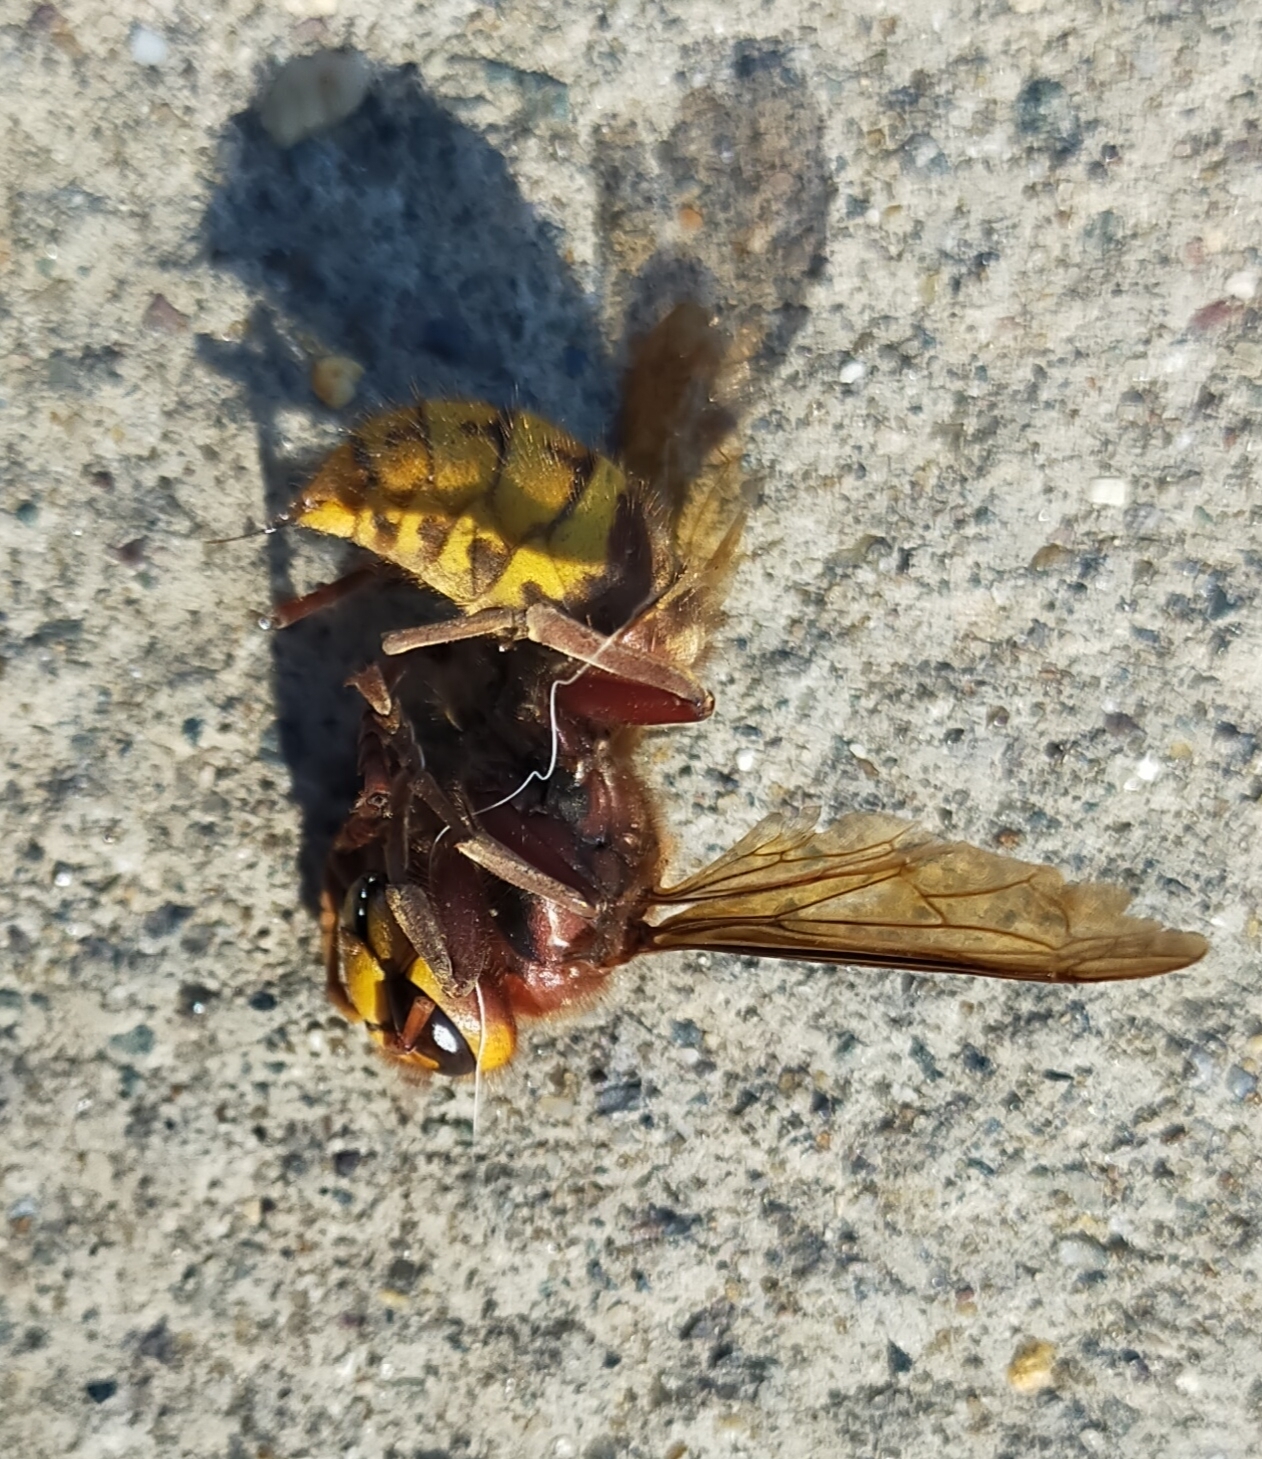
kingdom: Animalia
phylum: Arthropoda
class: Insecta
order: Hymenoptera
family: Vespidae
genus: Vespa
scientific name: Vespa crabro
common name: Hornet
